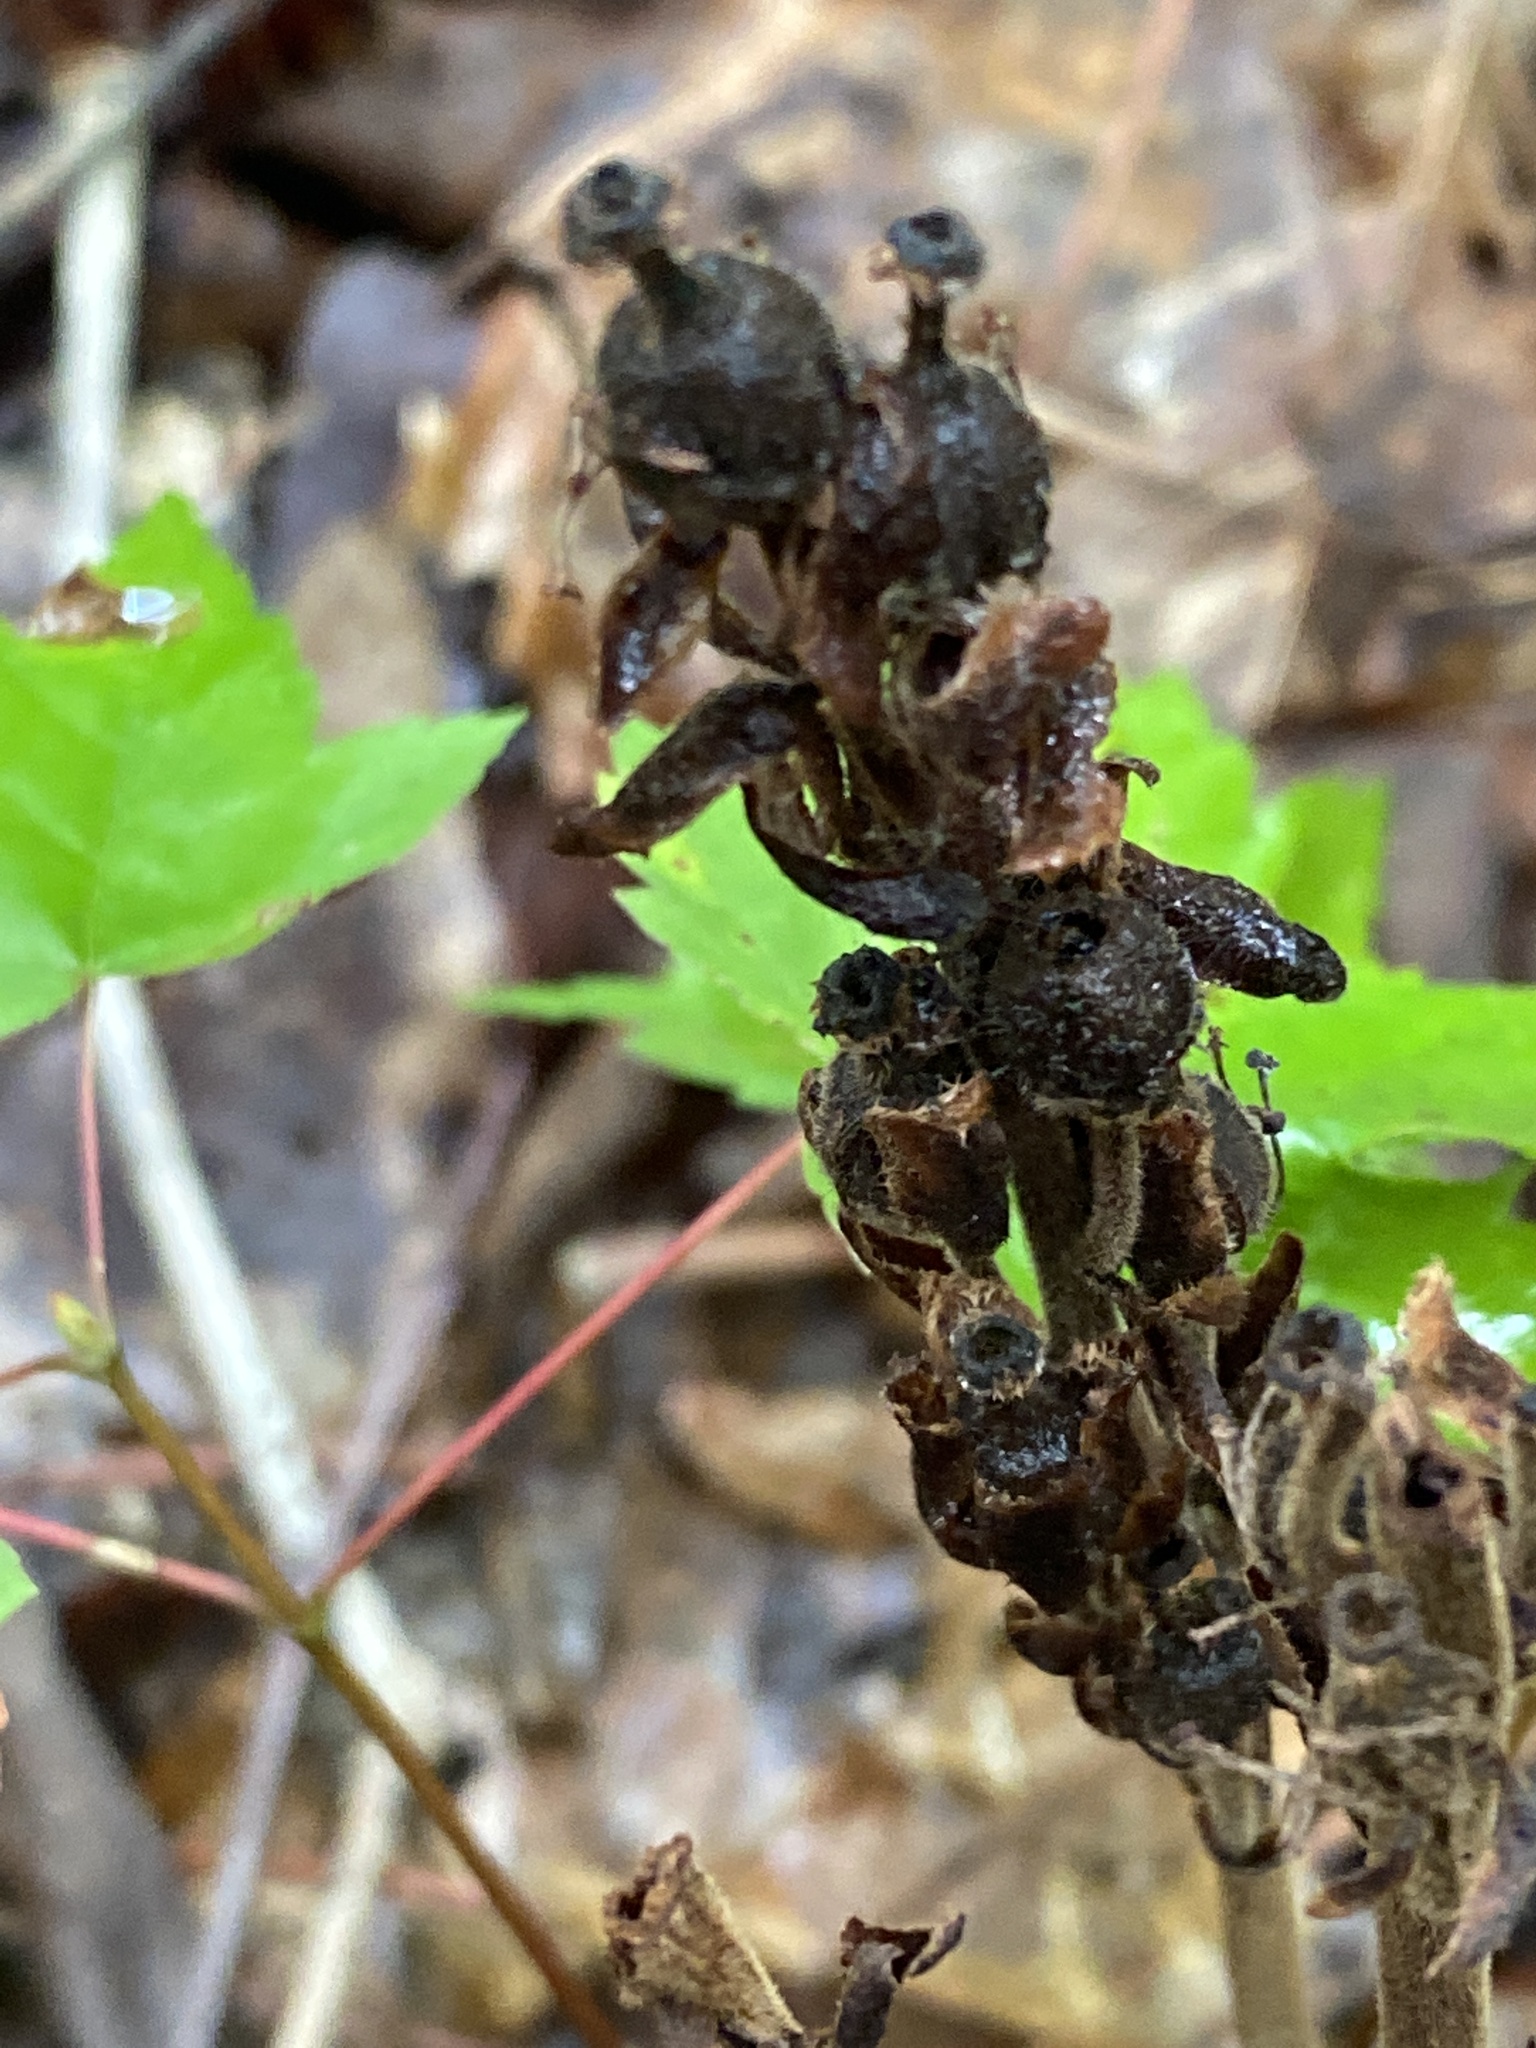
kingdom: Plantae
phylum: Tracheophyta
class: Magnoliopsida
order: Ericales
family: Ericaceae
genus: Hypopitys
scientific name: Hypopitys monotropa
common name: Yellow bird's-nest
